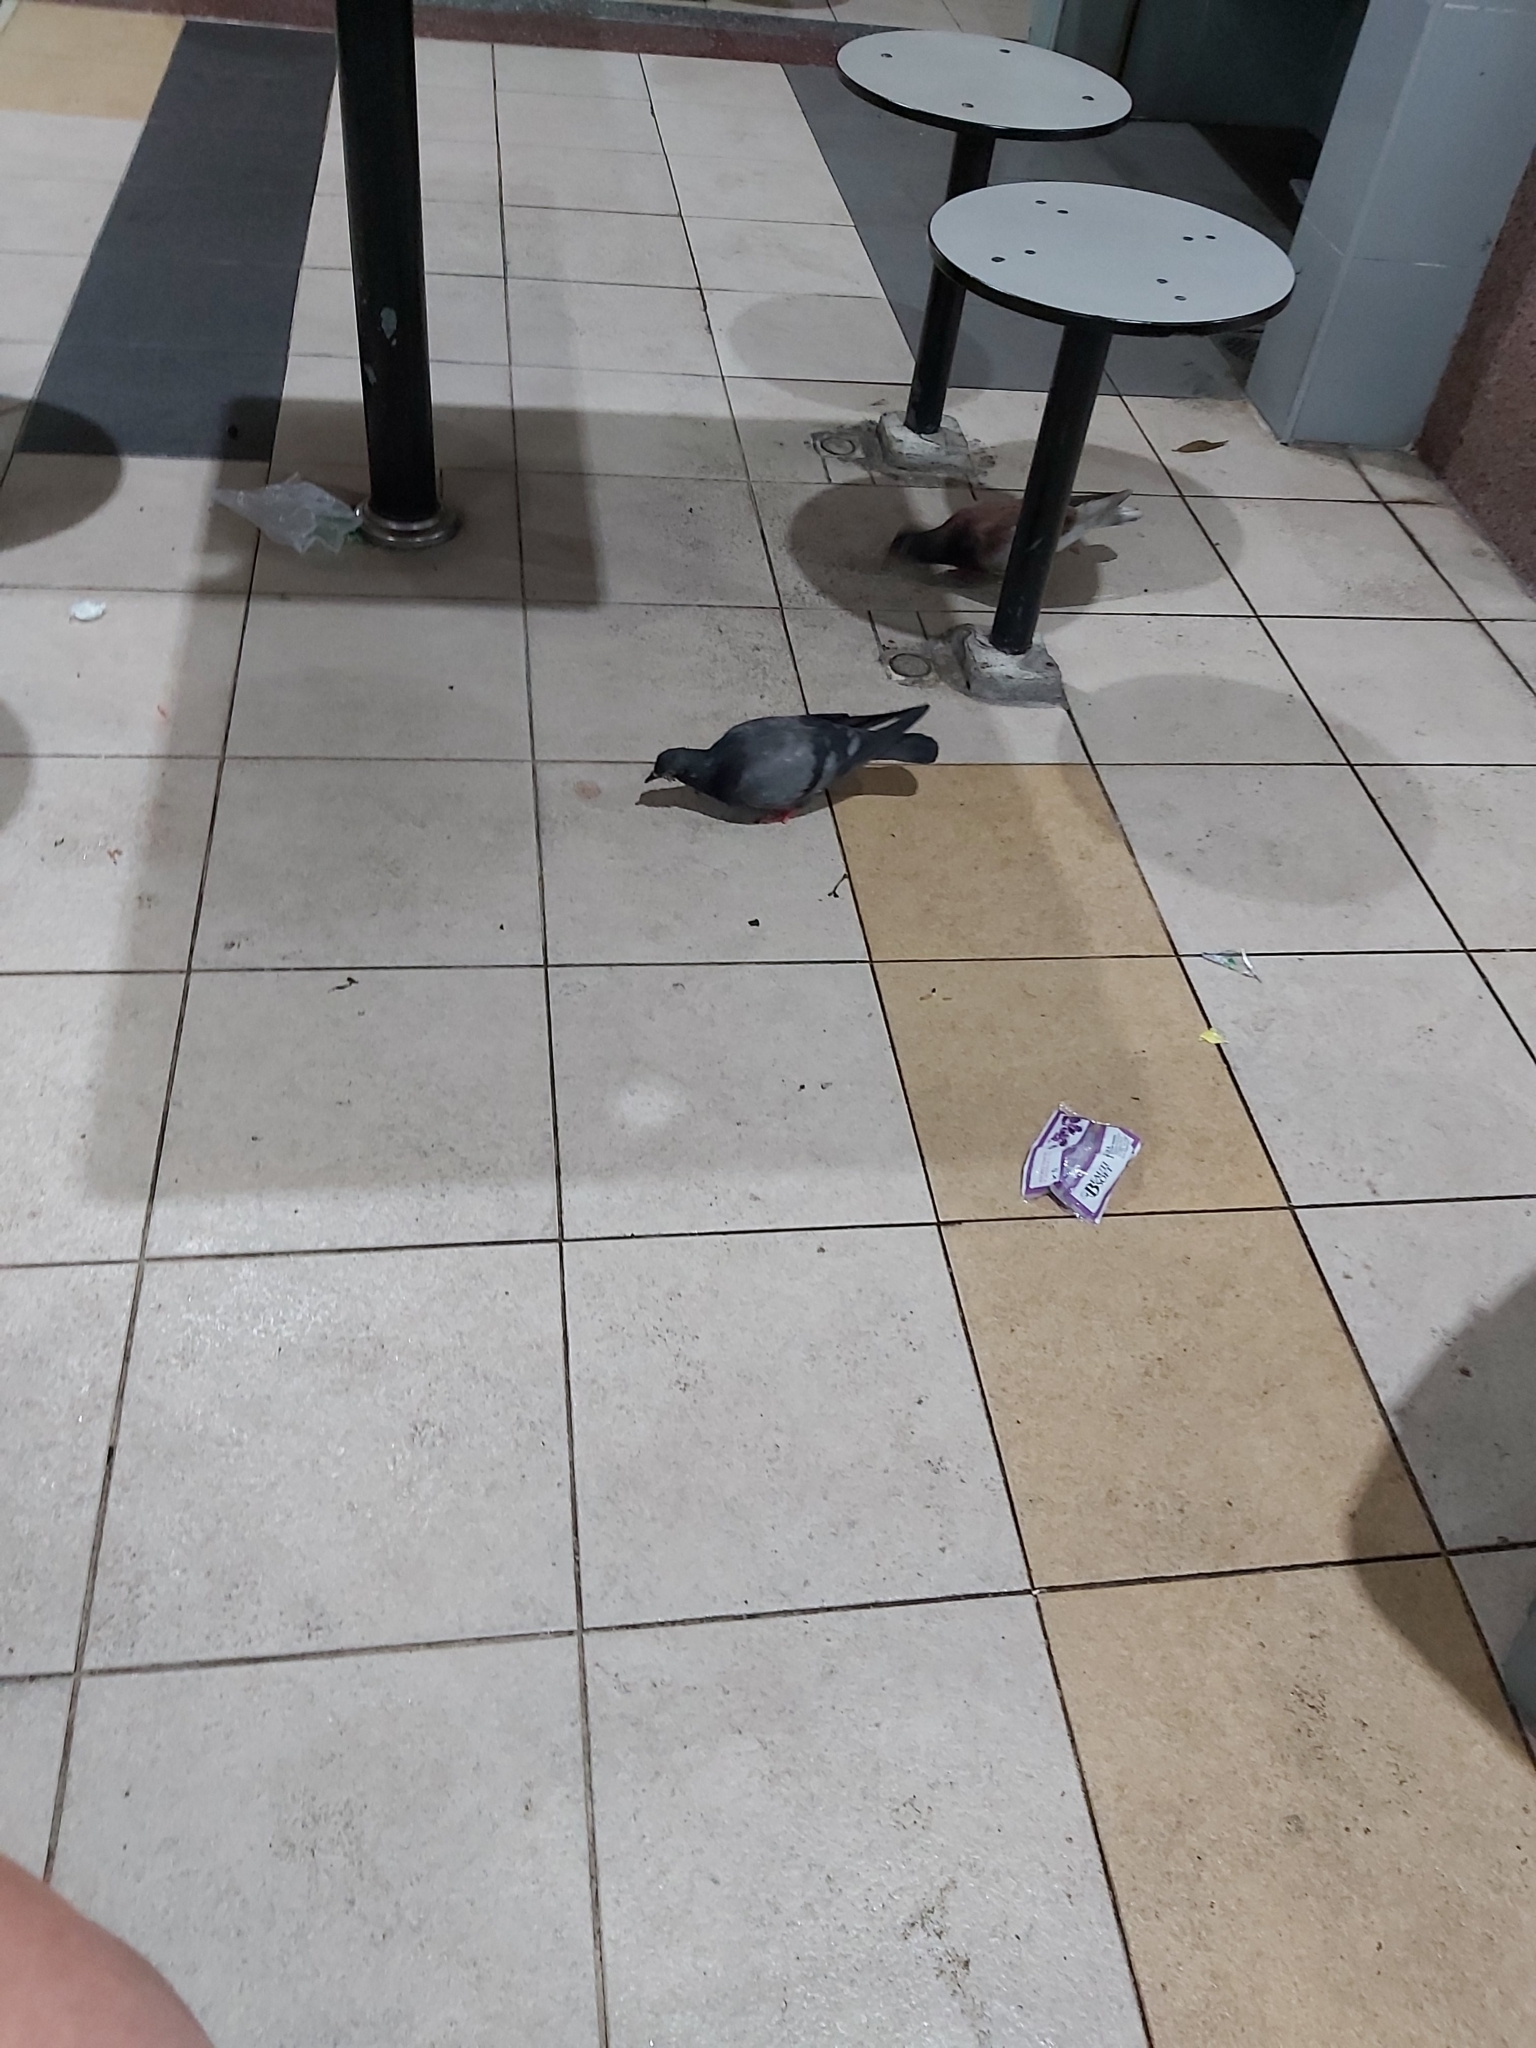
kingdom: Animalia
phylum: Chordata
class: Aves
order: Columbiformes
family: Columbidae
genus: Columba
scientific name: Columba livia
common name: Rock pigeon
